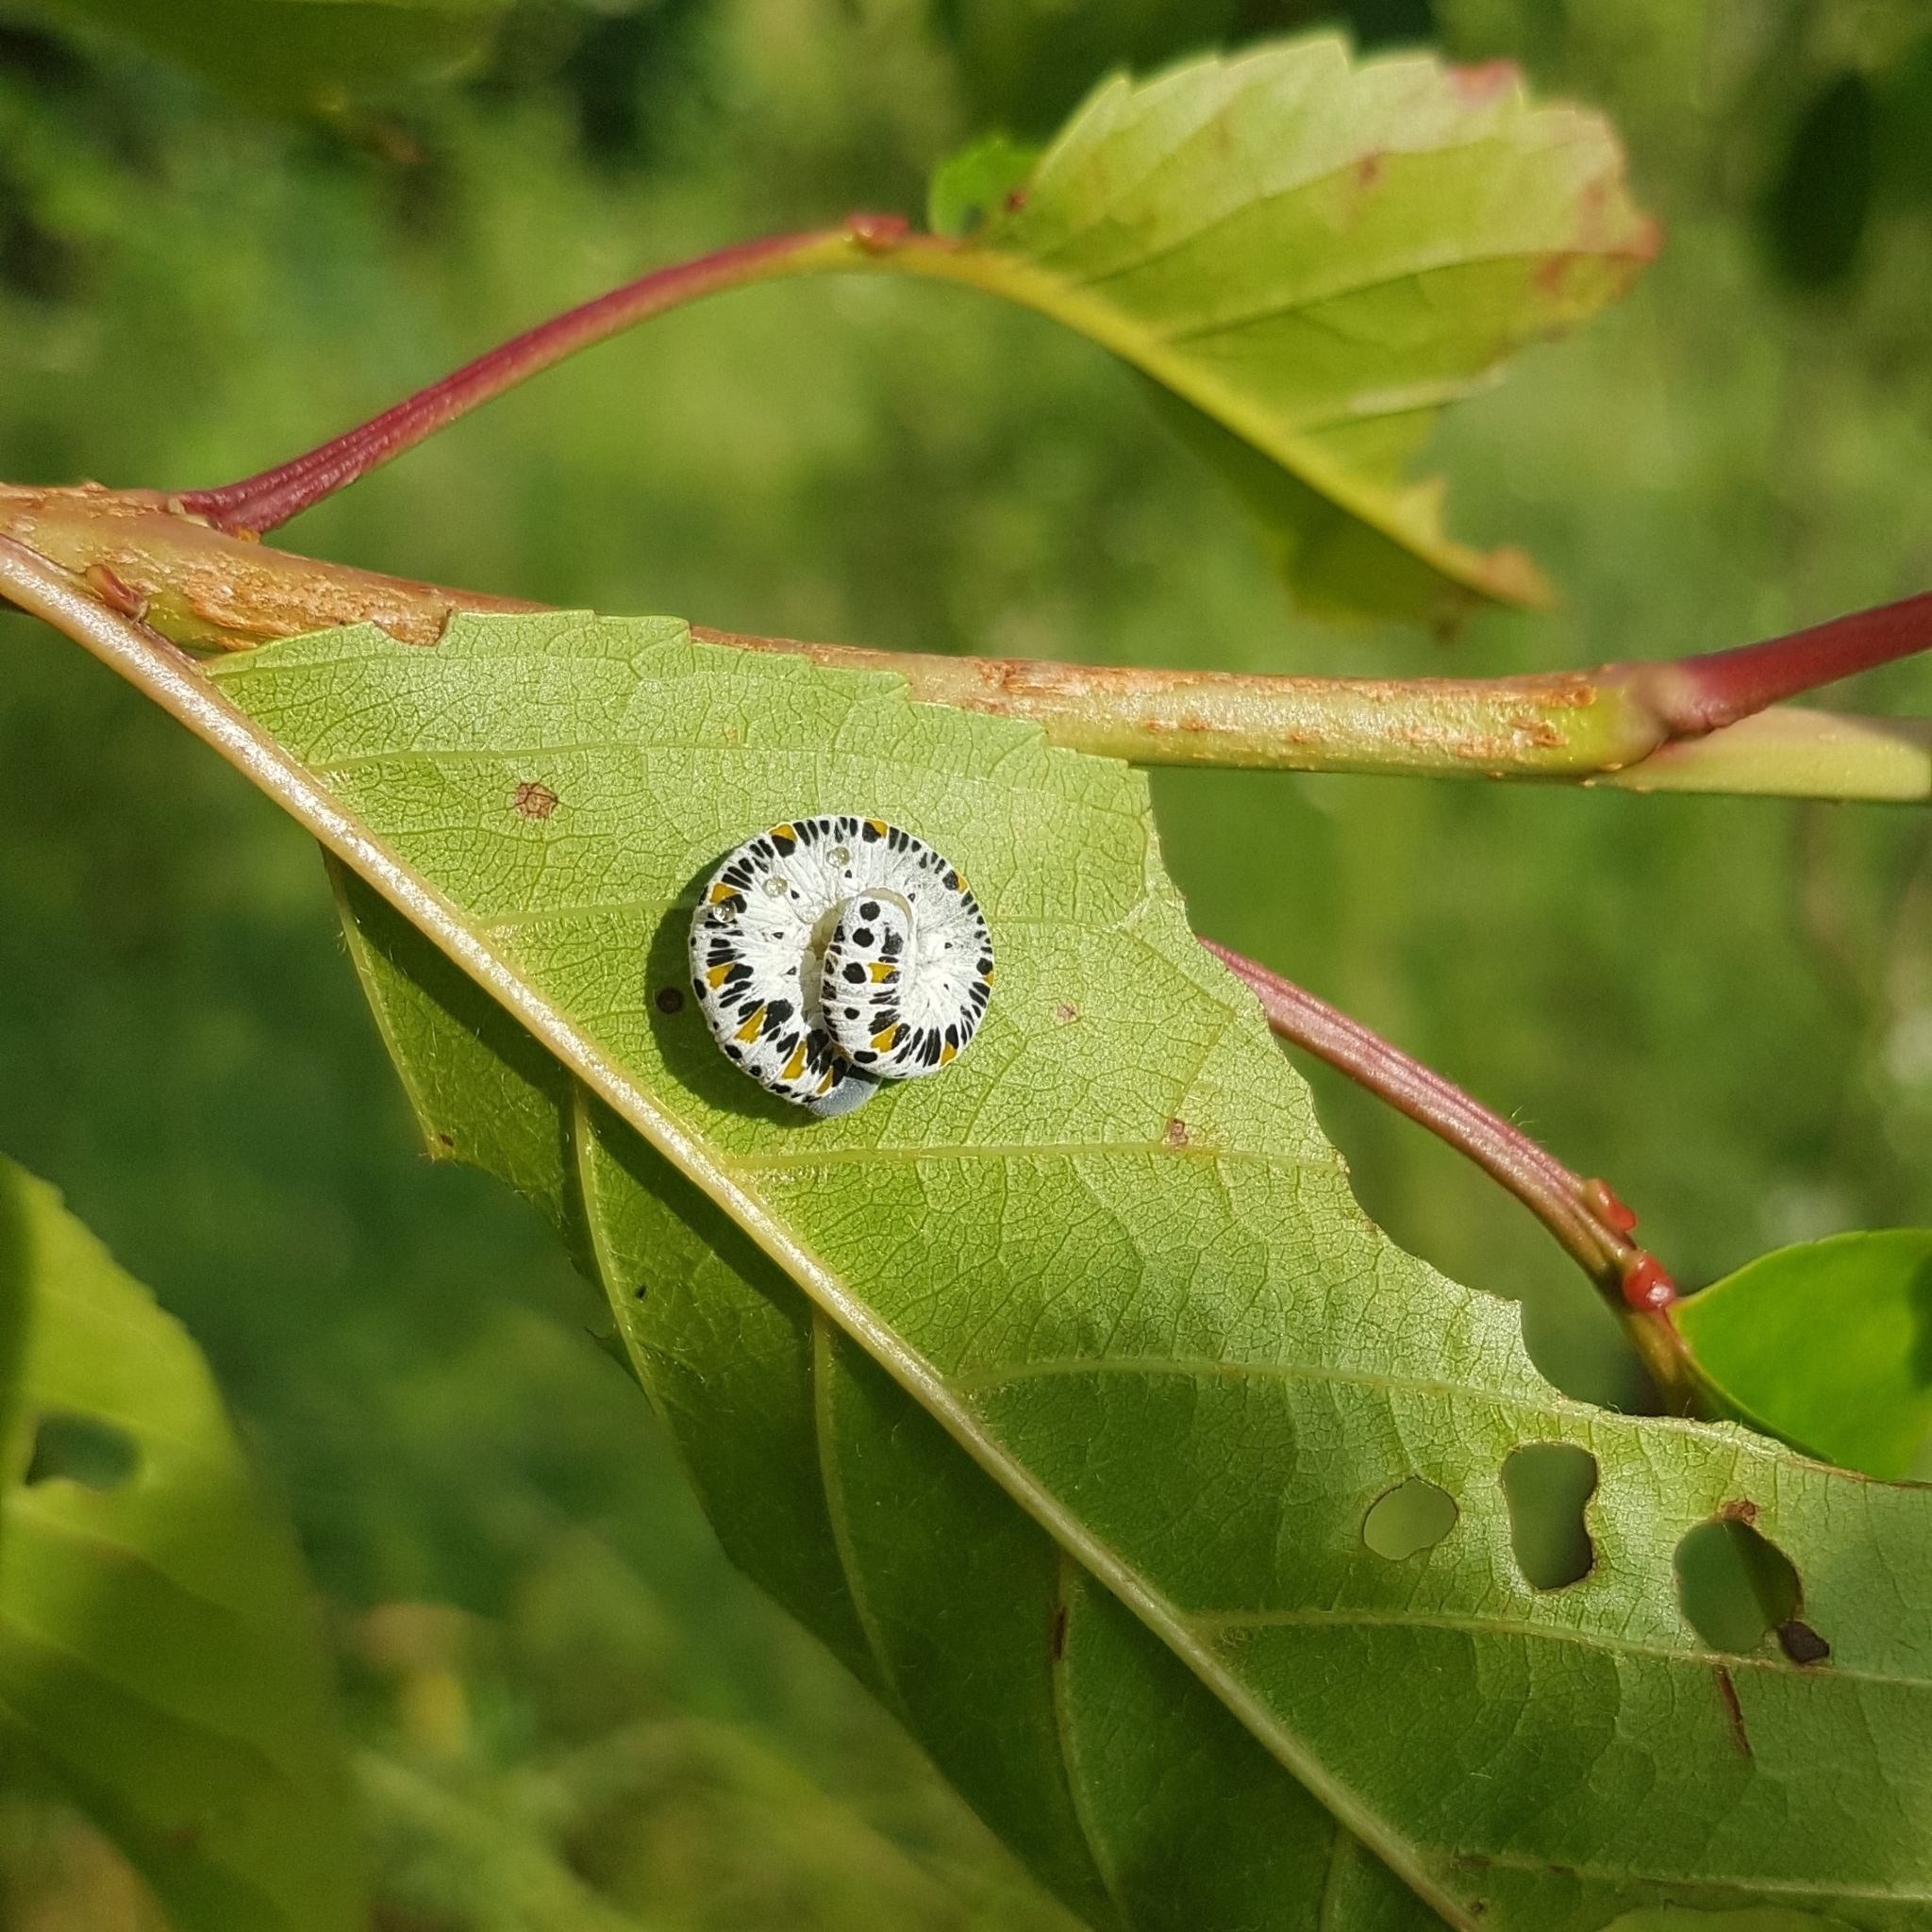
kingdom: Animalia
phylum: Arthropoda
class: Insecta
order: Hymenoptera
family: Cimbicidae
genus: Cimbex
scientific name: Cimbex quadrimaculatus
